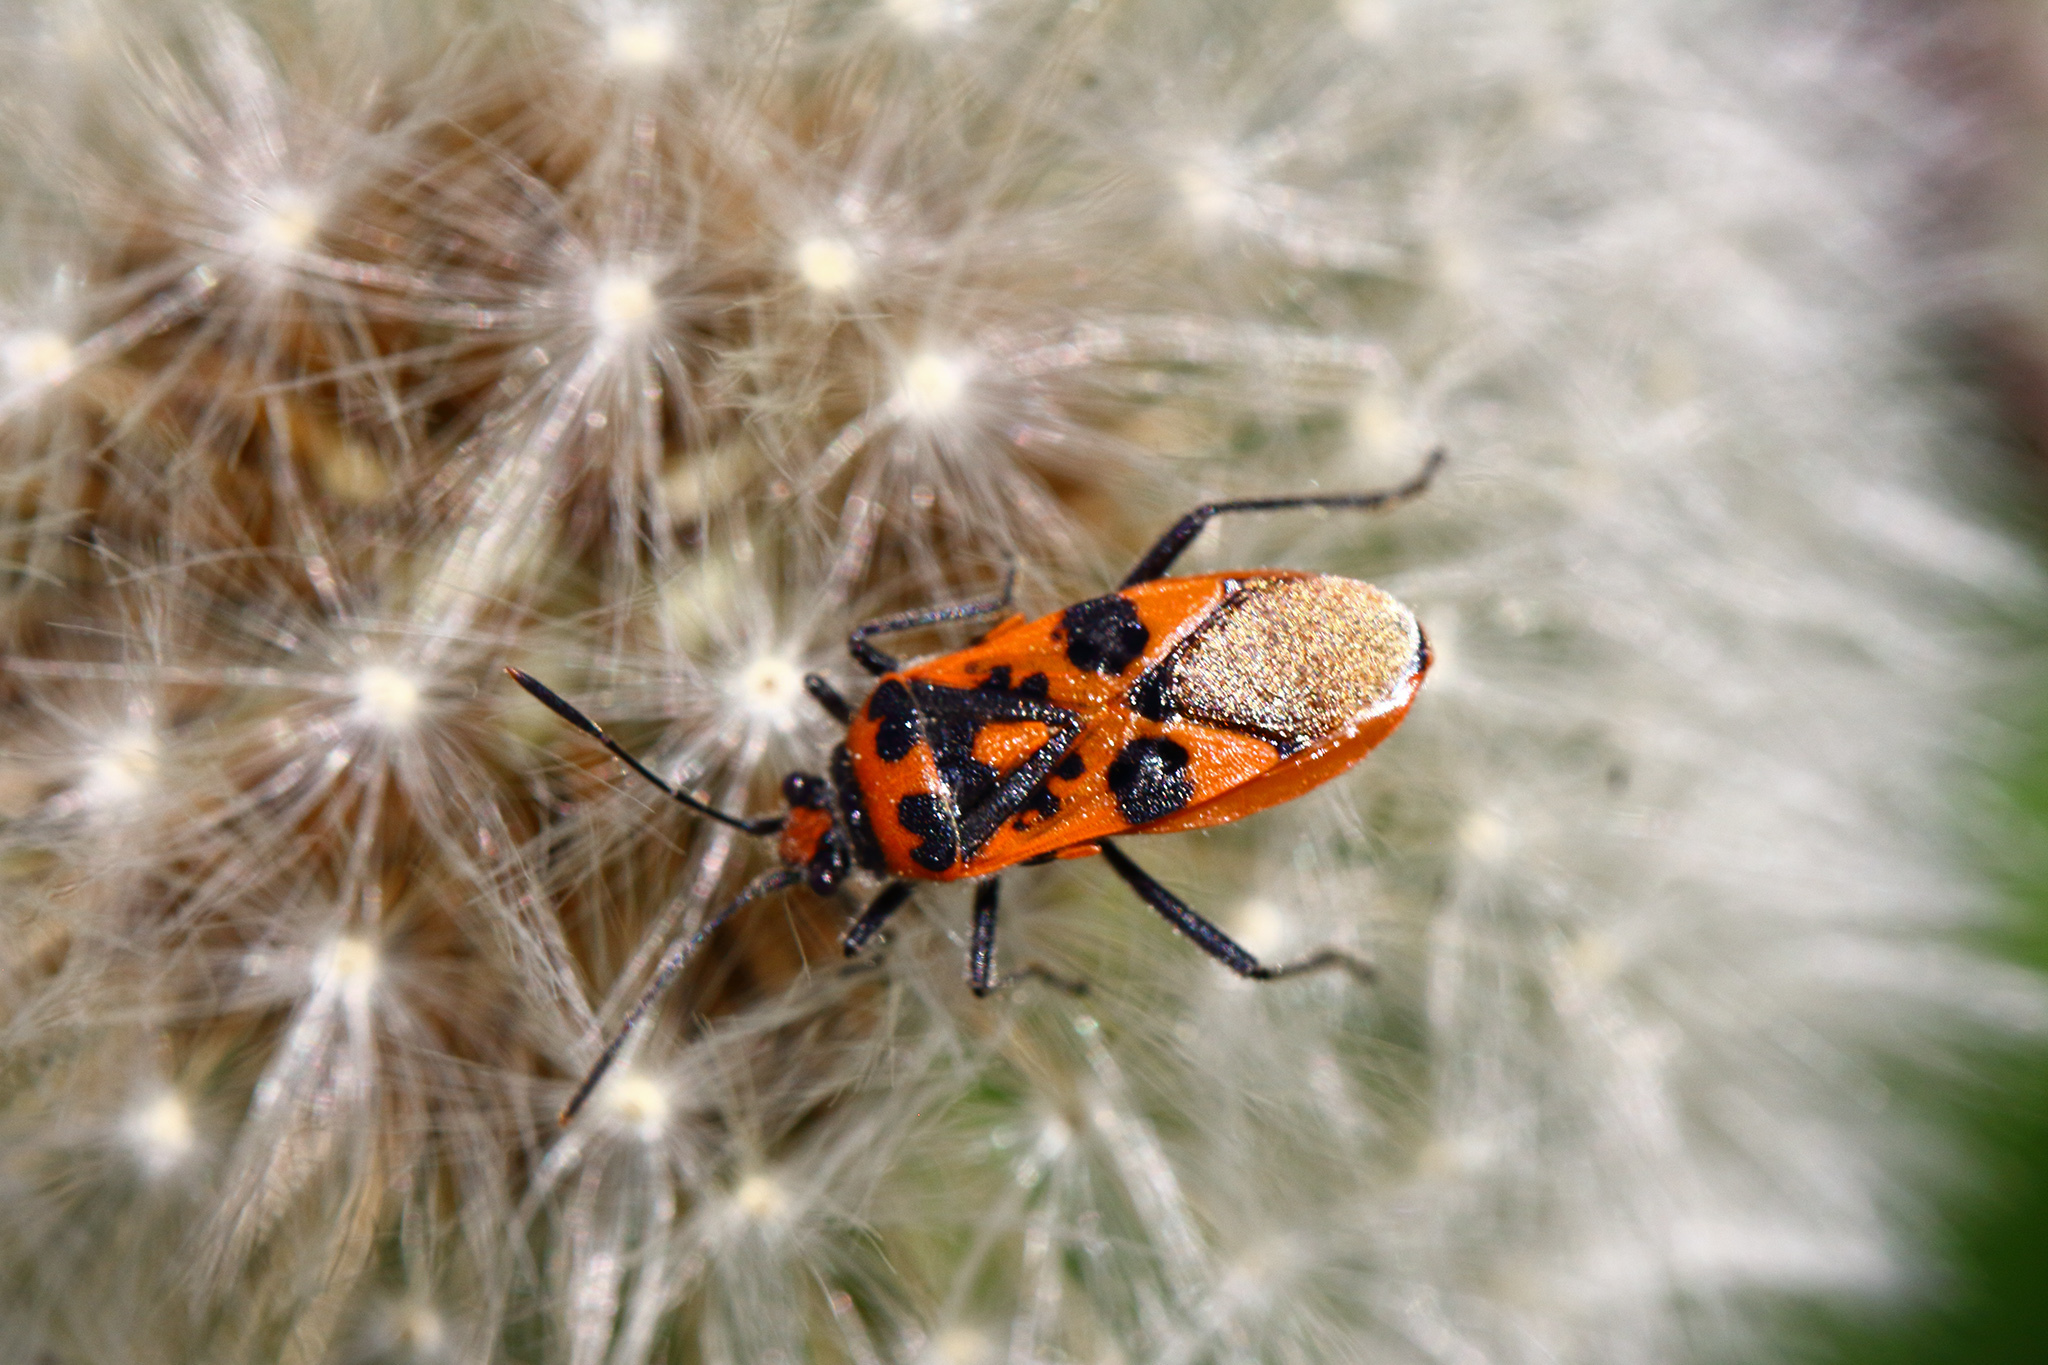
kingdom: Animalia
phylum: Arthropoda
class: Insecta
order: Hemiptera
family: Rhopalidae
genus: Corizus
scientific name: Corizus hyoscyami
